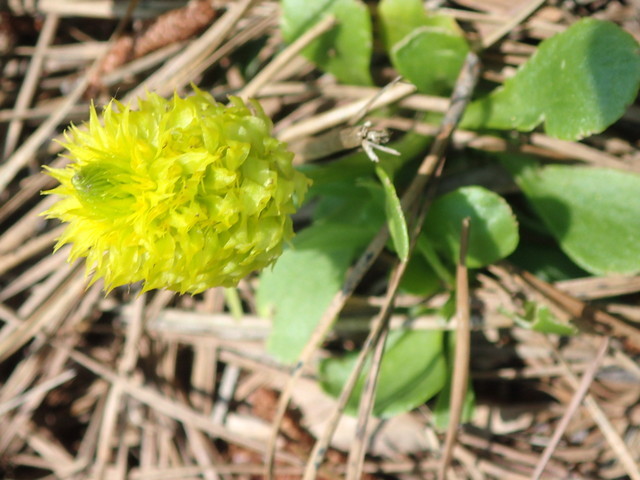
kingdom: Plantae
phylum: Tracheophyta
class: Magnoliopsida
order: Fabales
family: Polygalaceae
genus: Polygala
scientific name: Polygala nana
